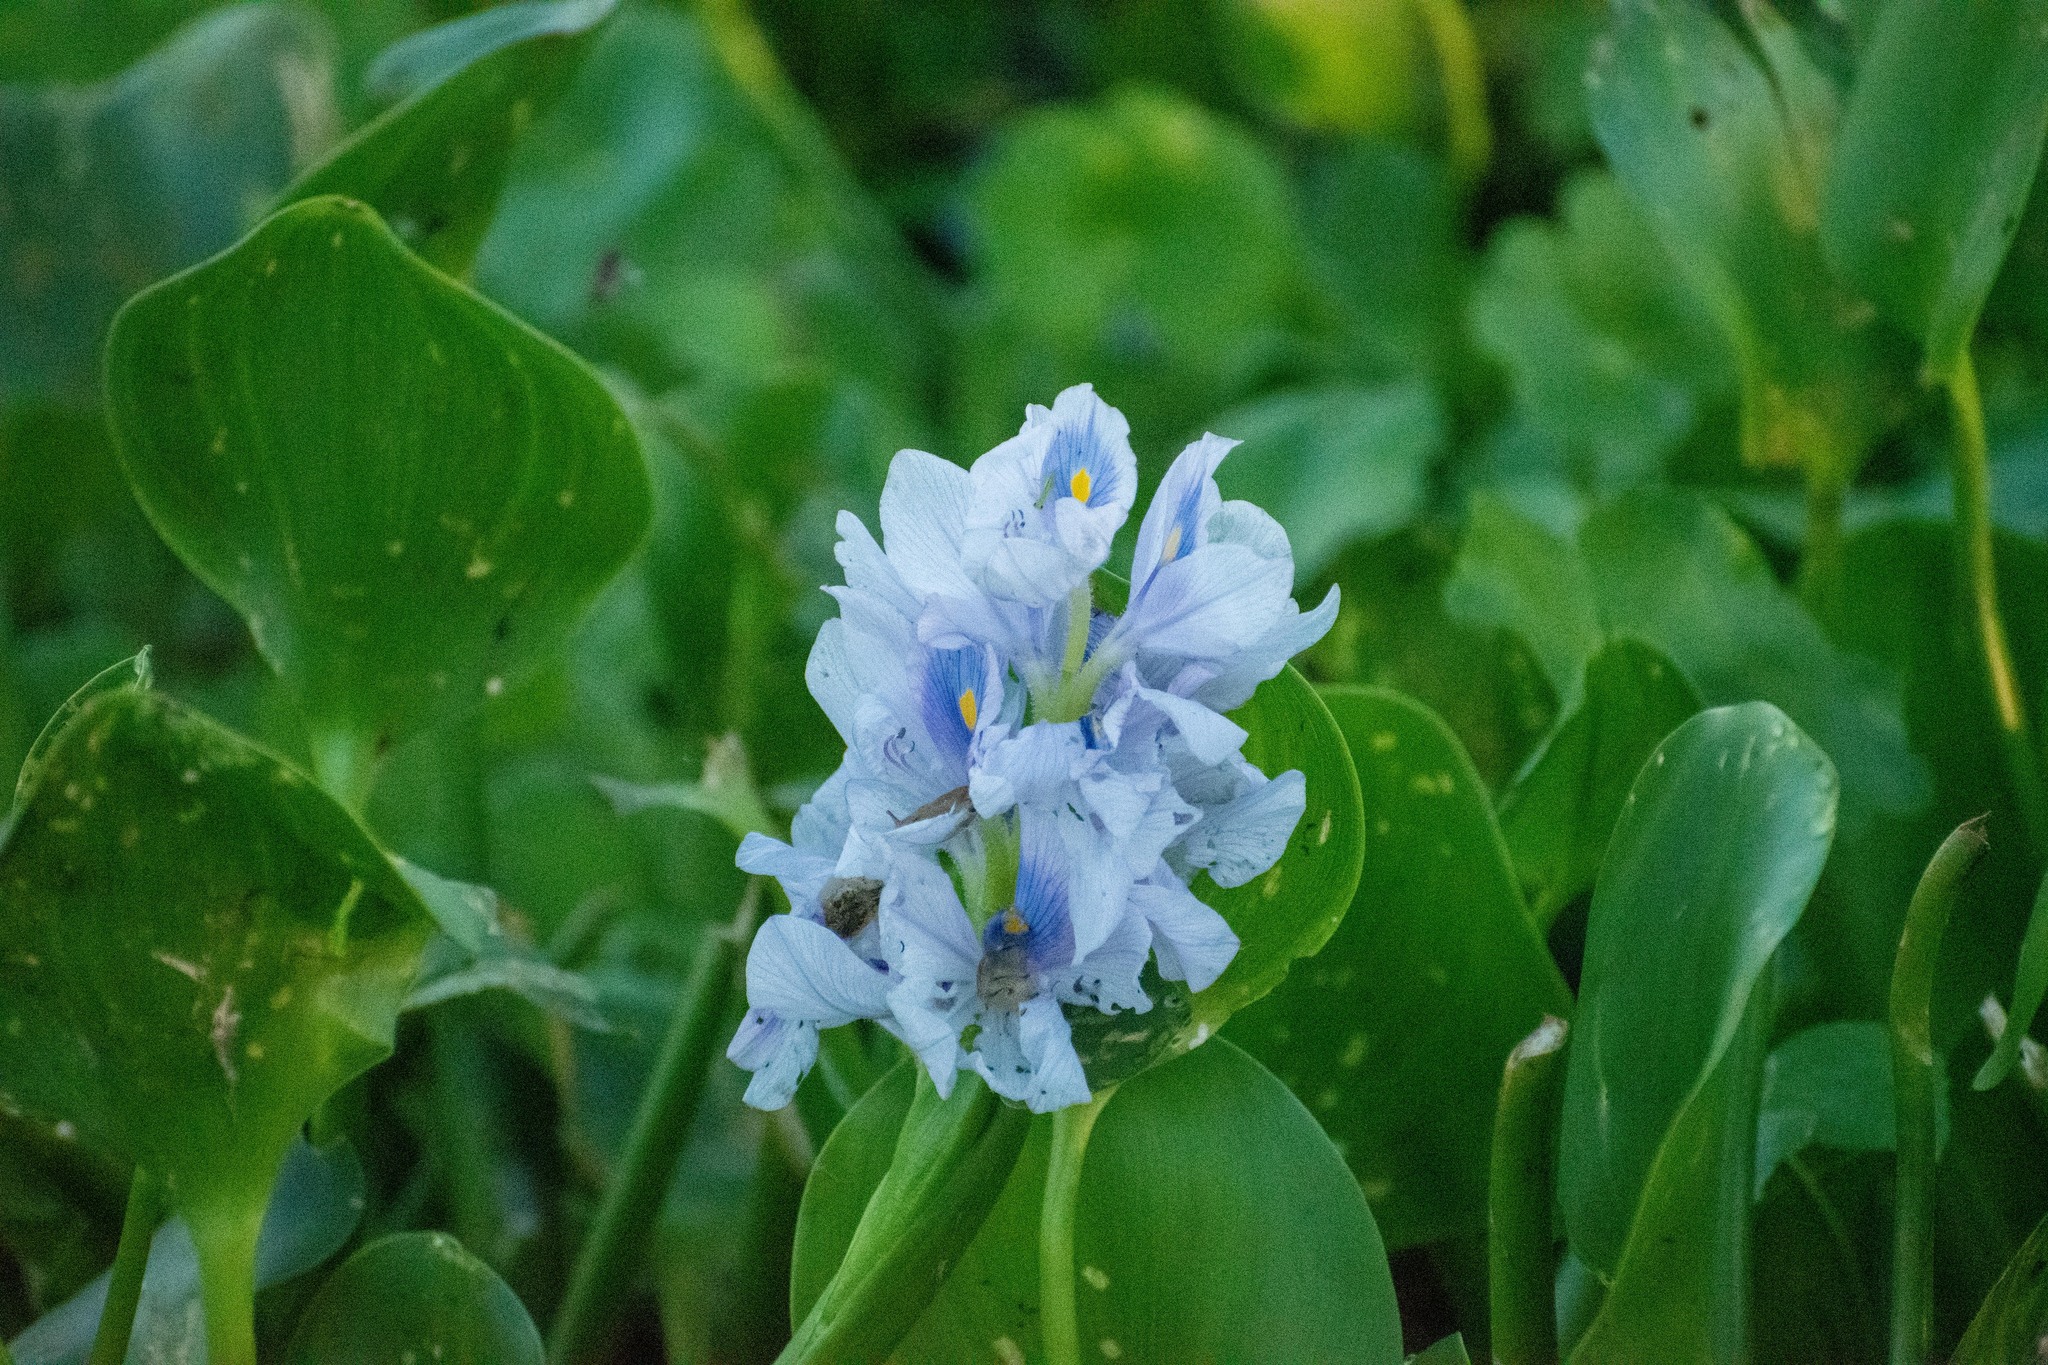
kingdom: Plantae
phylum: Tracheophyta
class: Liliopsida
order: Commelinales
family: Pontederiaceae
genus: Pontederia
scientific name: Pontederia crassipes
